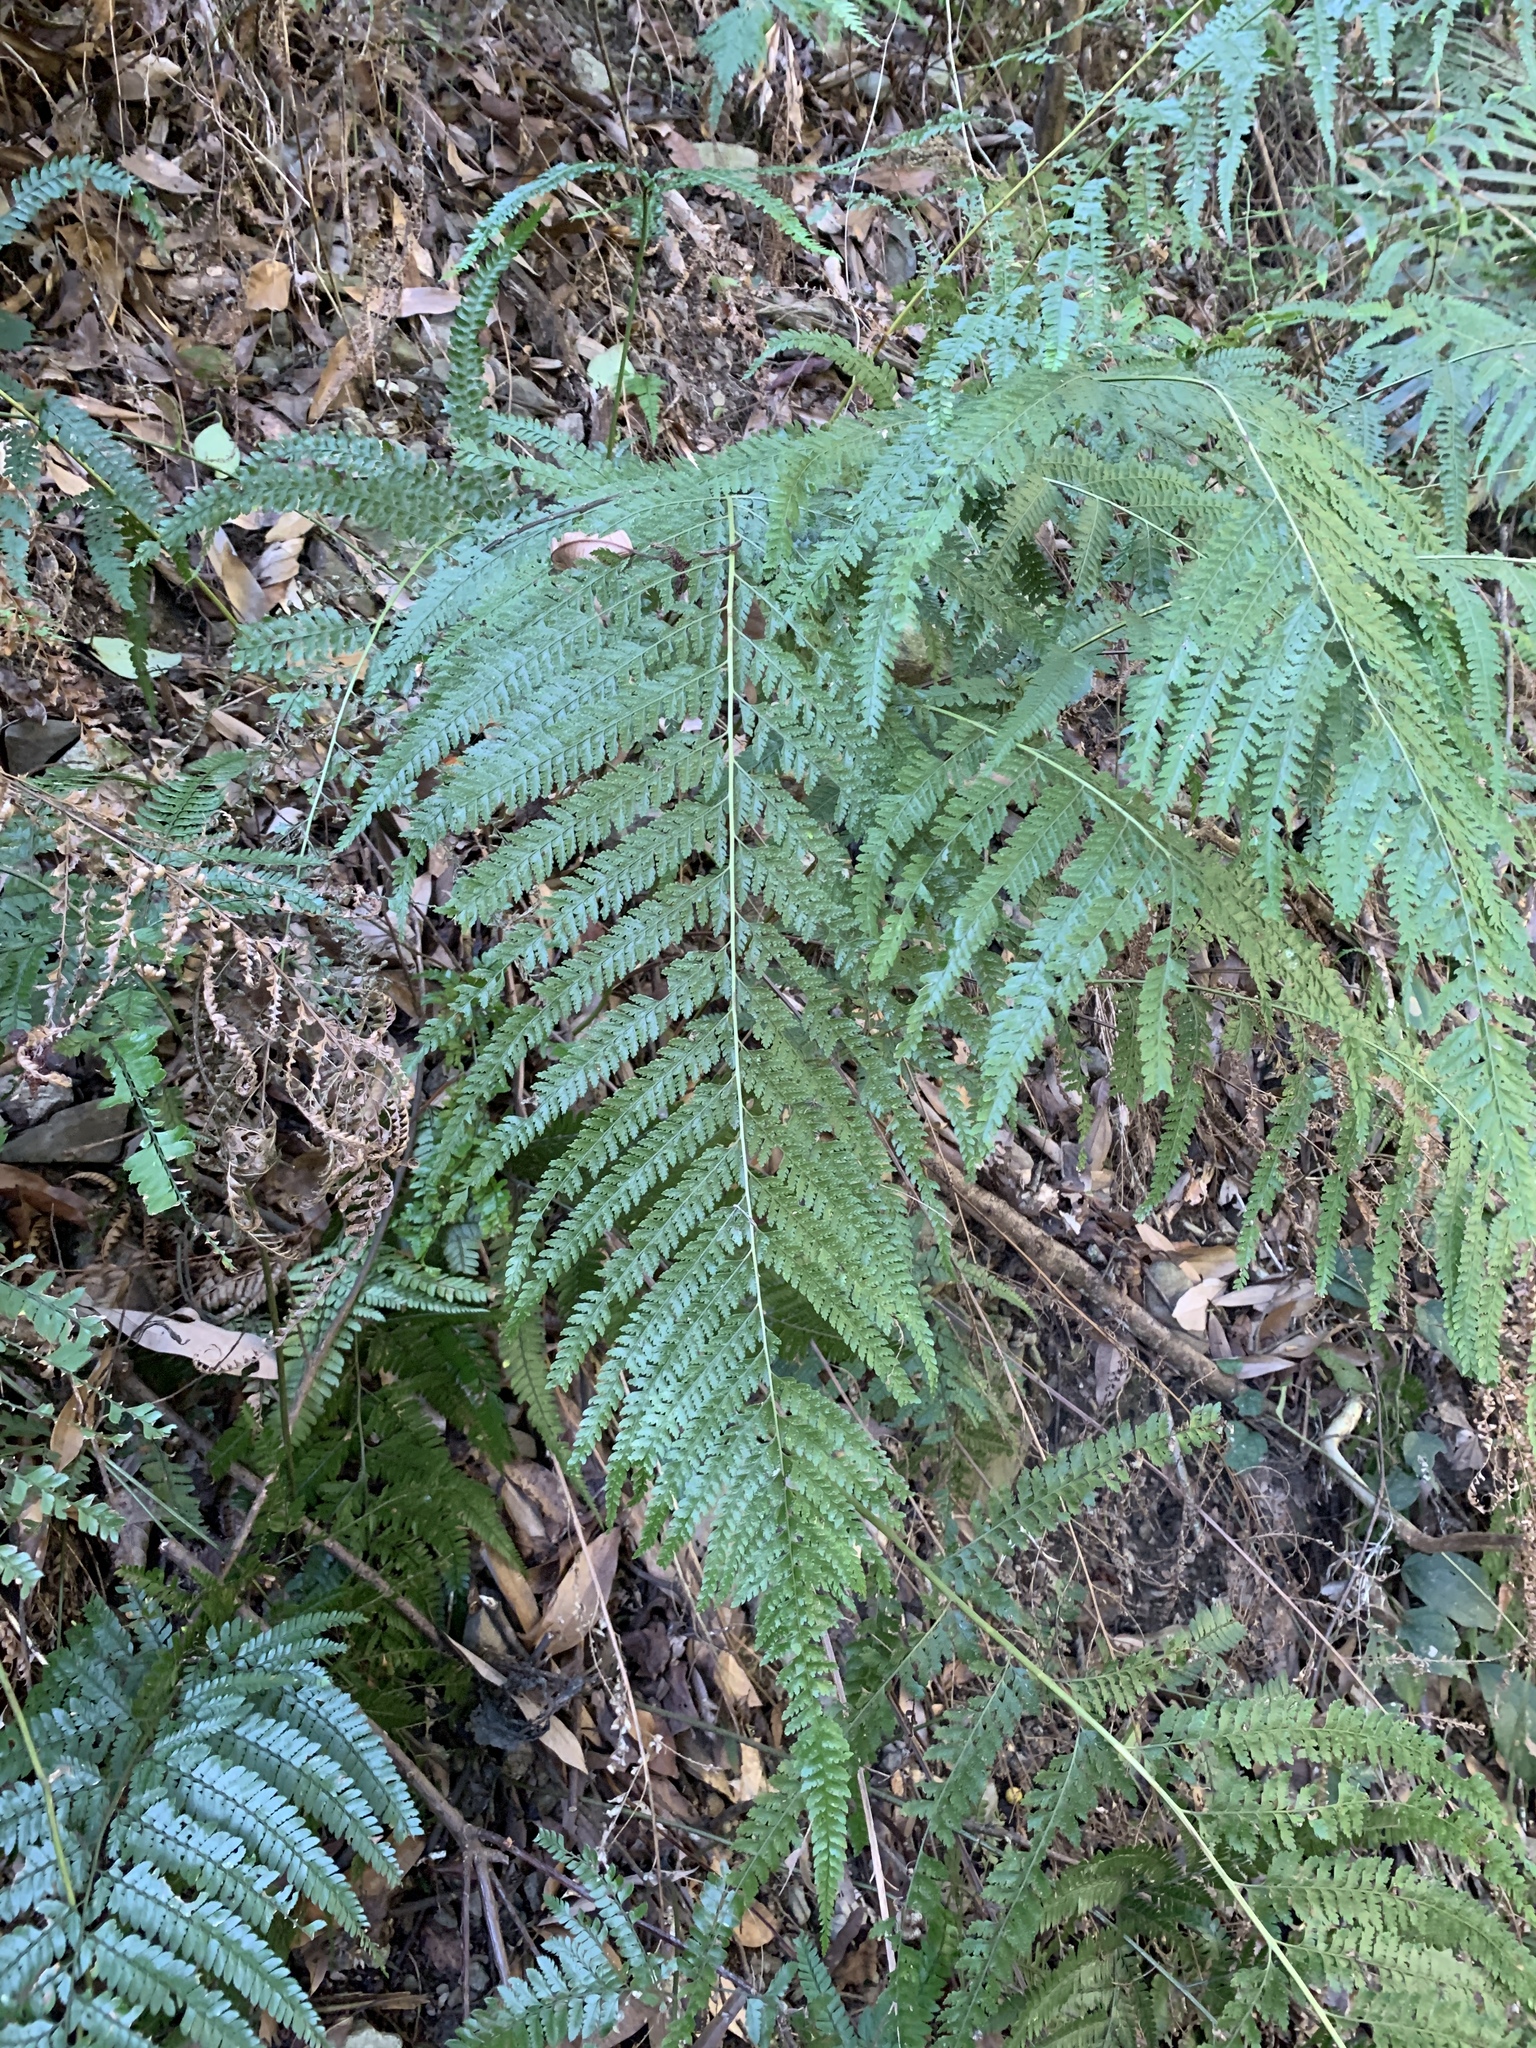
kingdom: Plantae
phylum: Tracheophyta
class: Polypodiopsida
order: Polypodiales
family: Dennstaedtiaceae
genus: Microlepia
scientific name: Microlepia strigosa
